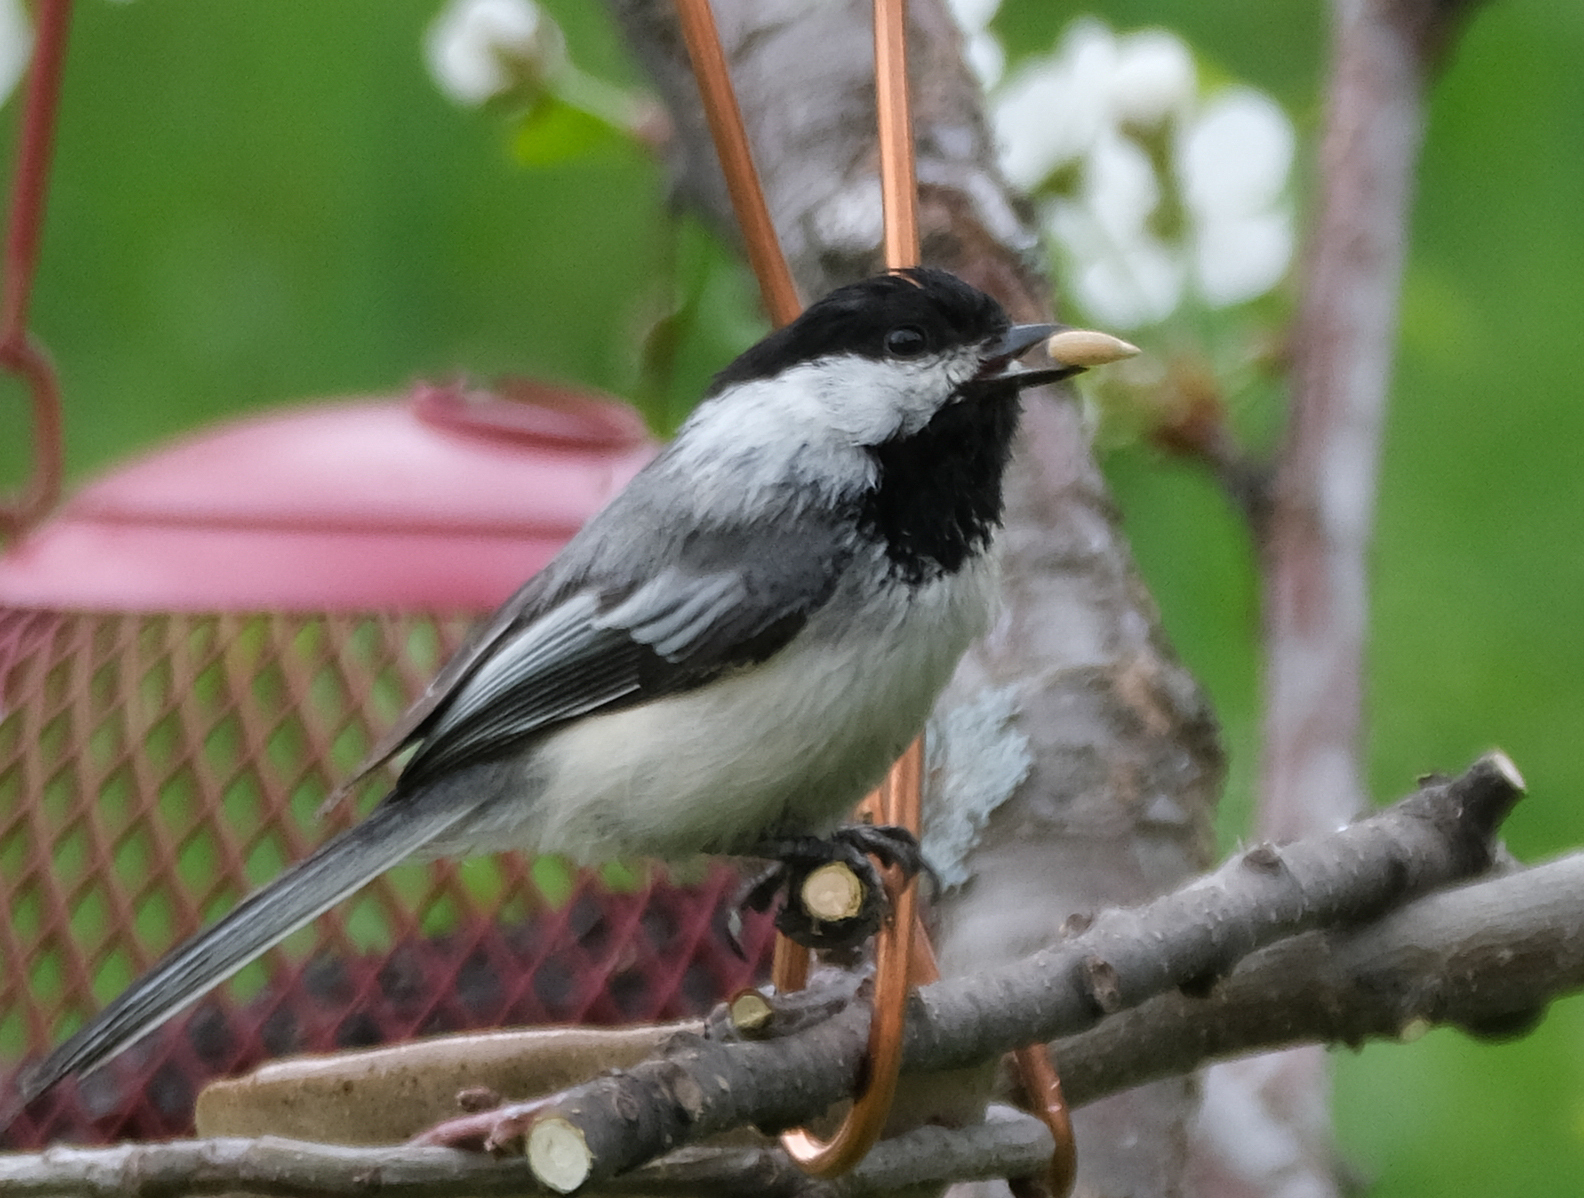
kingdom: Animalia
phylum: Chordata
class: Aves
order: Passeriformes
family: Paridae
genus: Poecile
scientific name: Poecile atricapillus
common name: Black-capped chickadee
